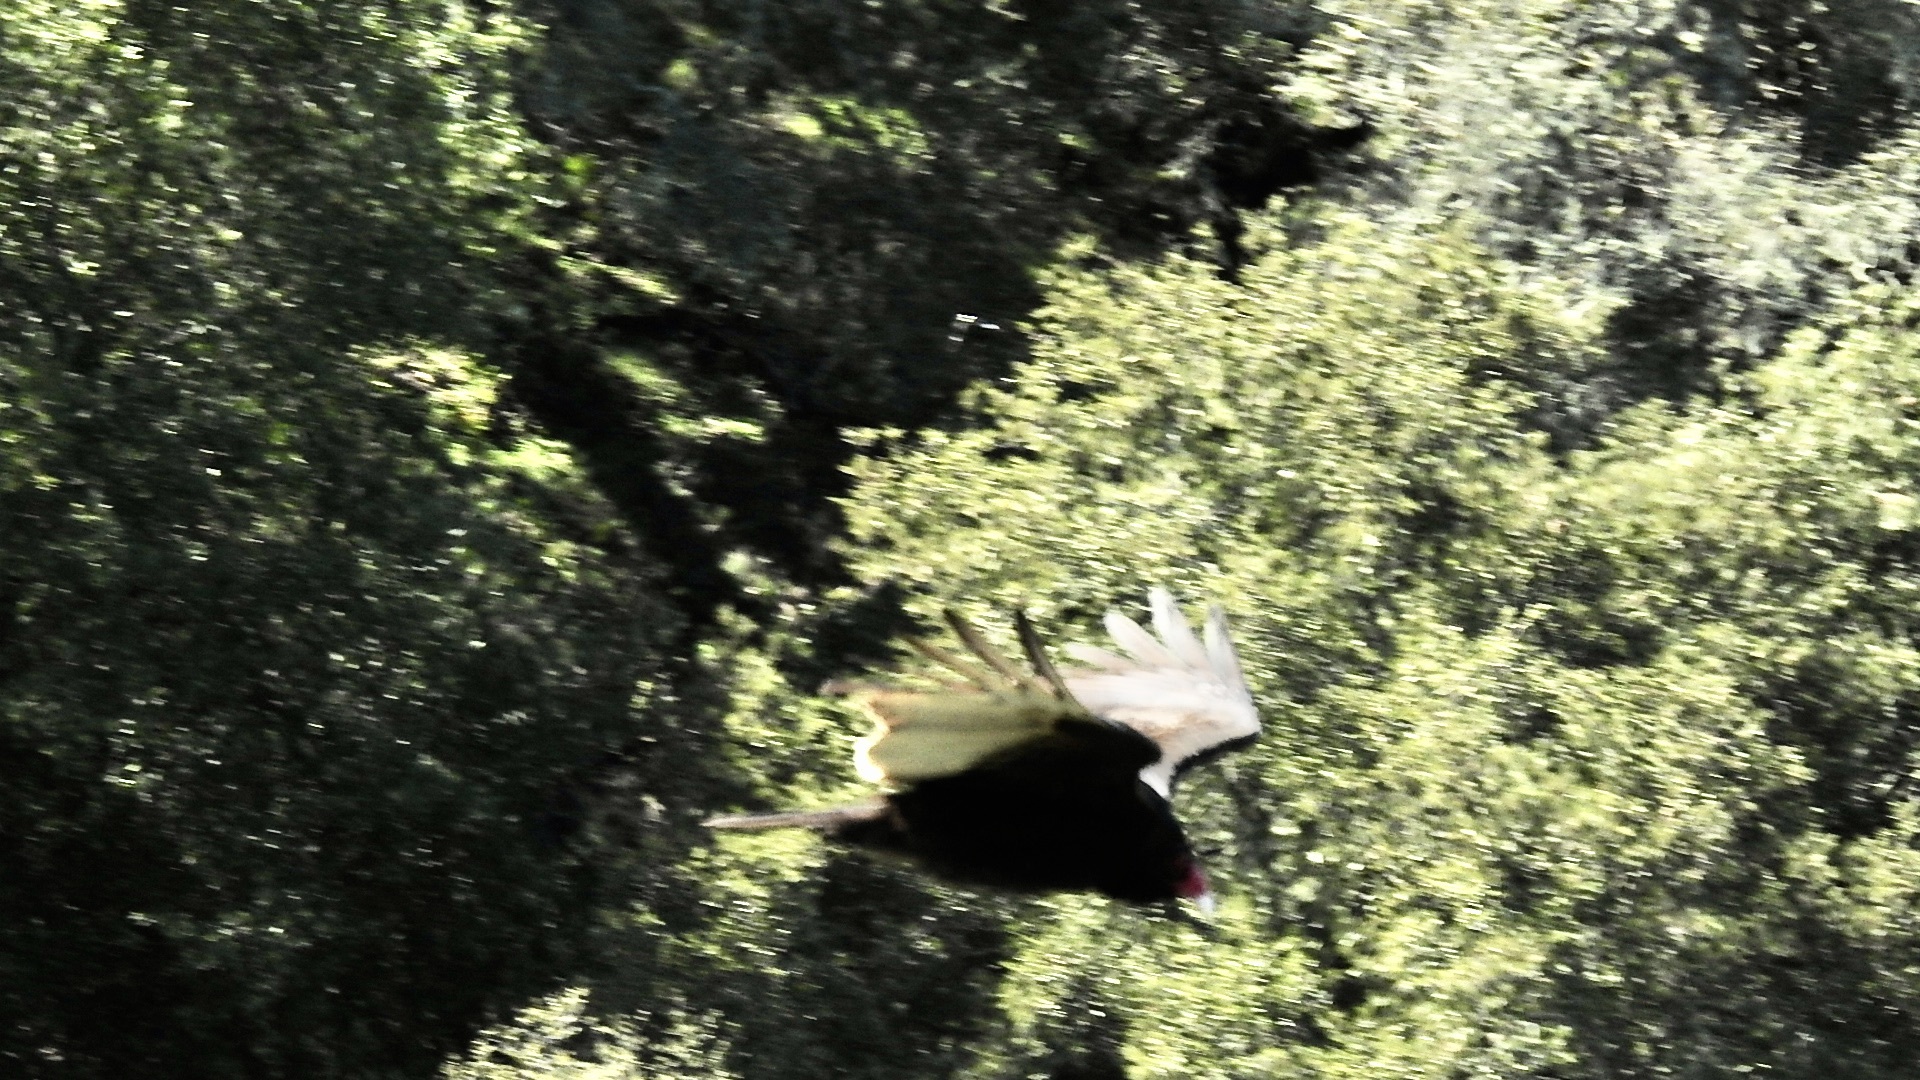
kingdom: Animalia
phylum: Chordata
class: Aves
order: Accipitriformes
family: Cathartidae
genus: Cathartes
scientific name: Cathartes aura
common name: Turkey vulture
